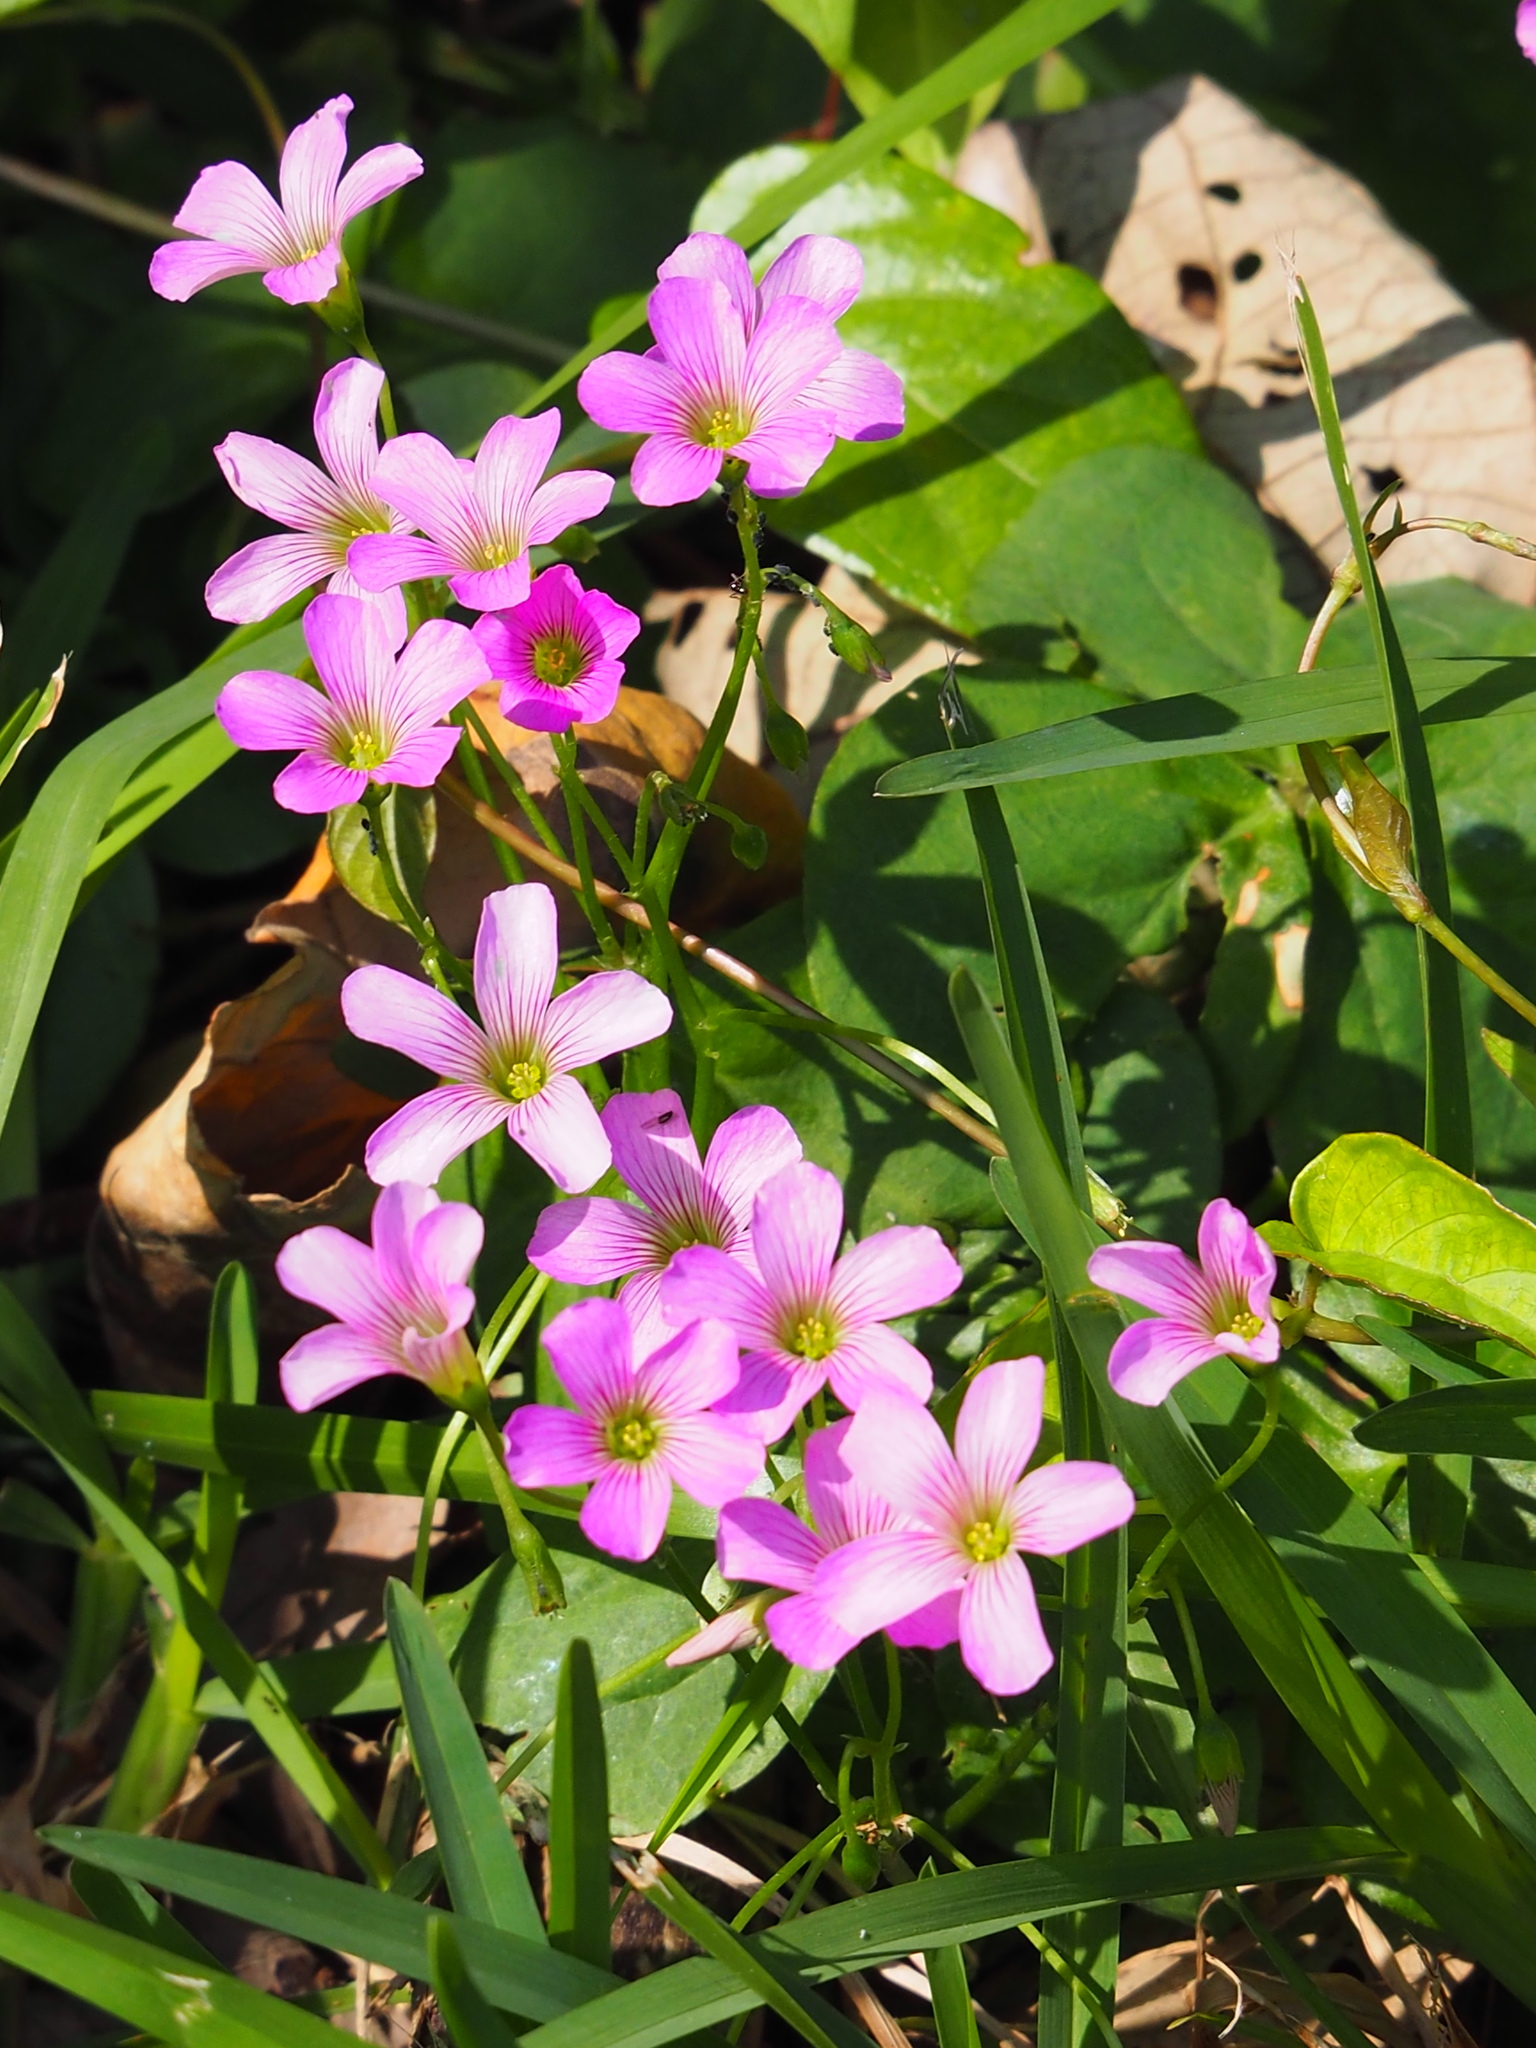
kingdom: Plantae
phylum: Tracheophyta
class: Magnoliopsida
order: Oxalidales
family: Oxalidaceae
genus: Oxalis
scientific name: Oxalis debilis
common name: Large-flowered pink-sorrel
